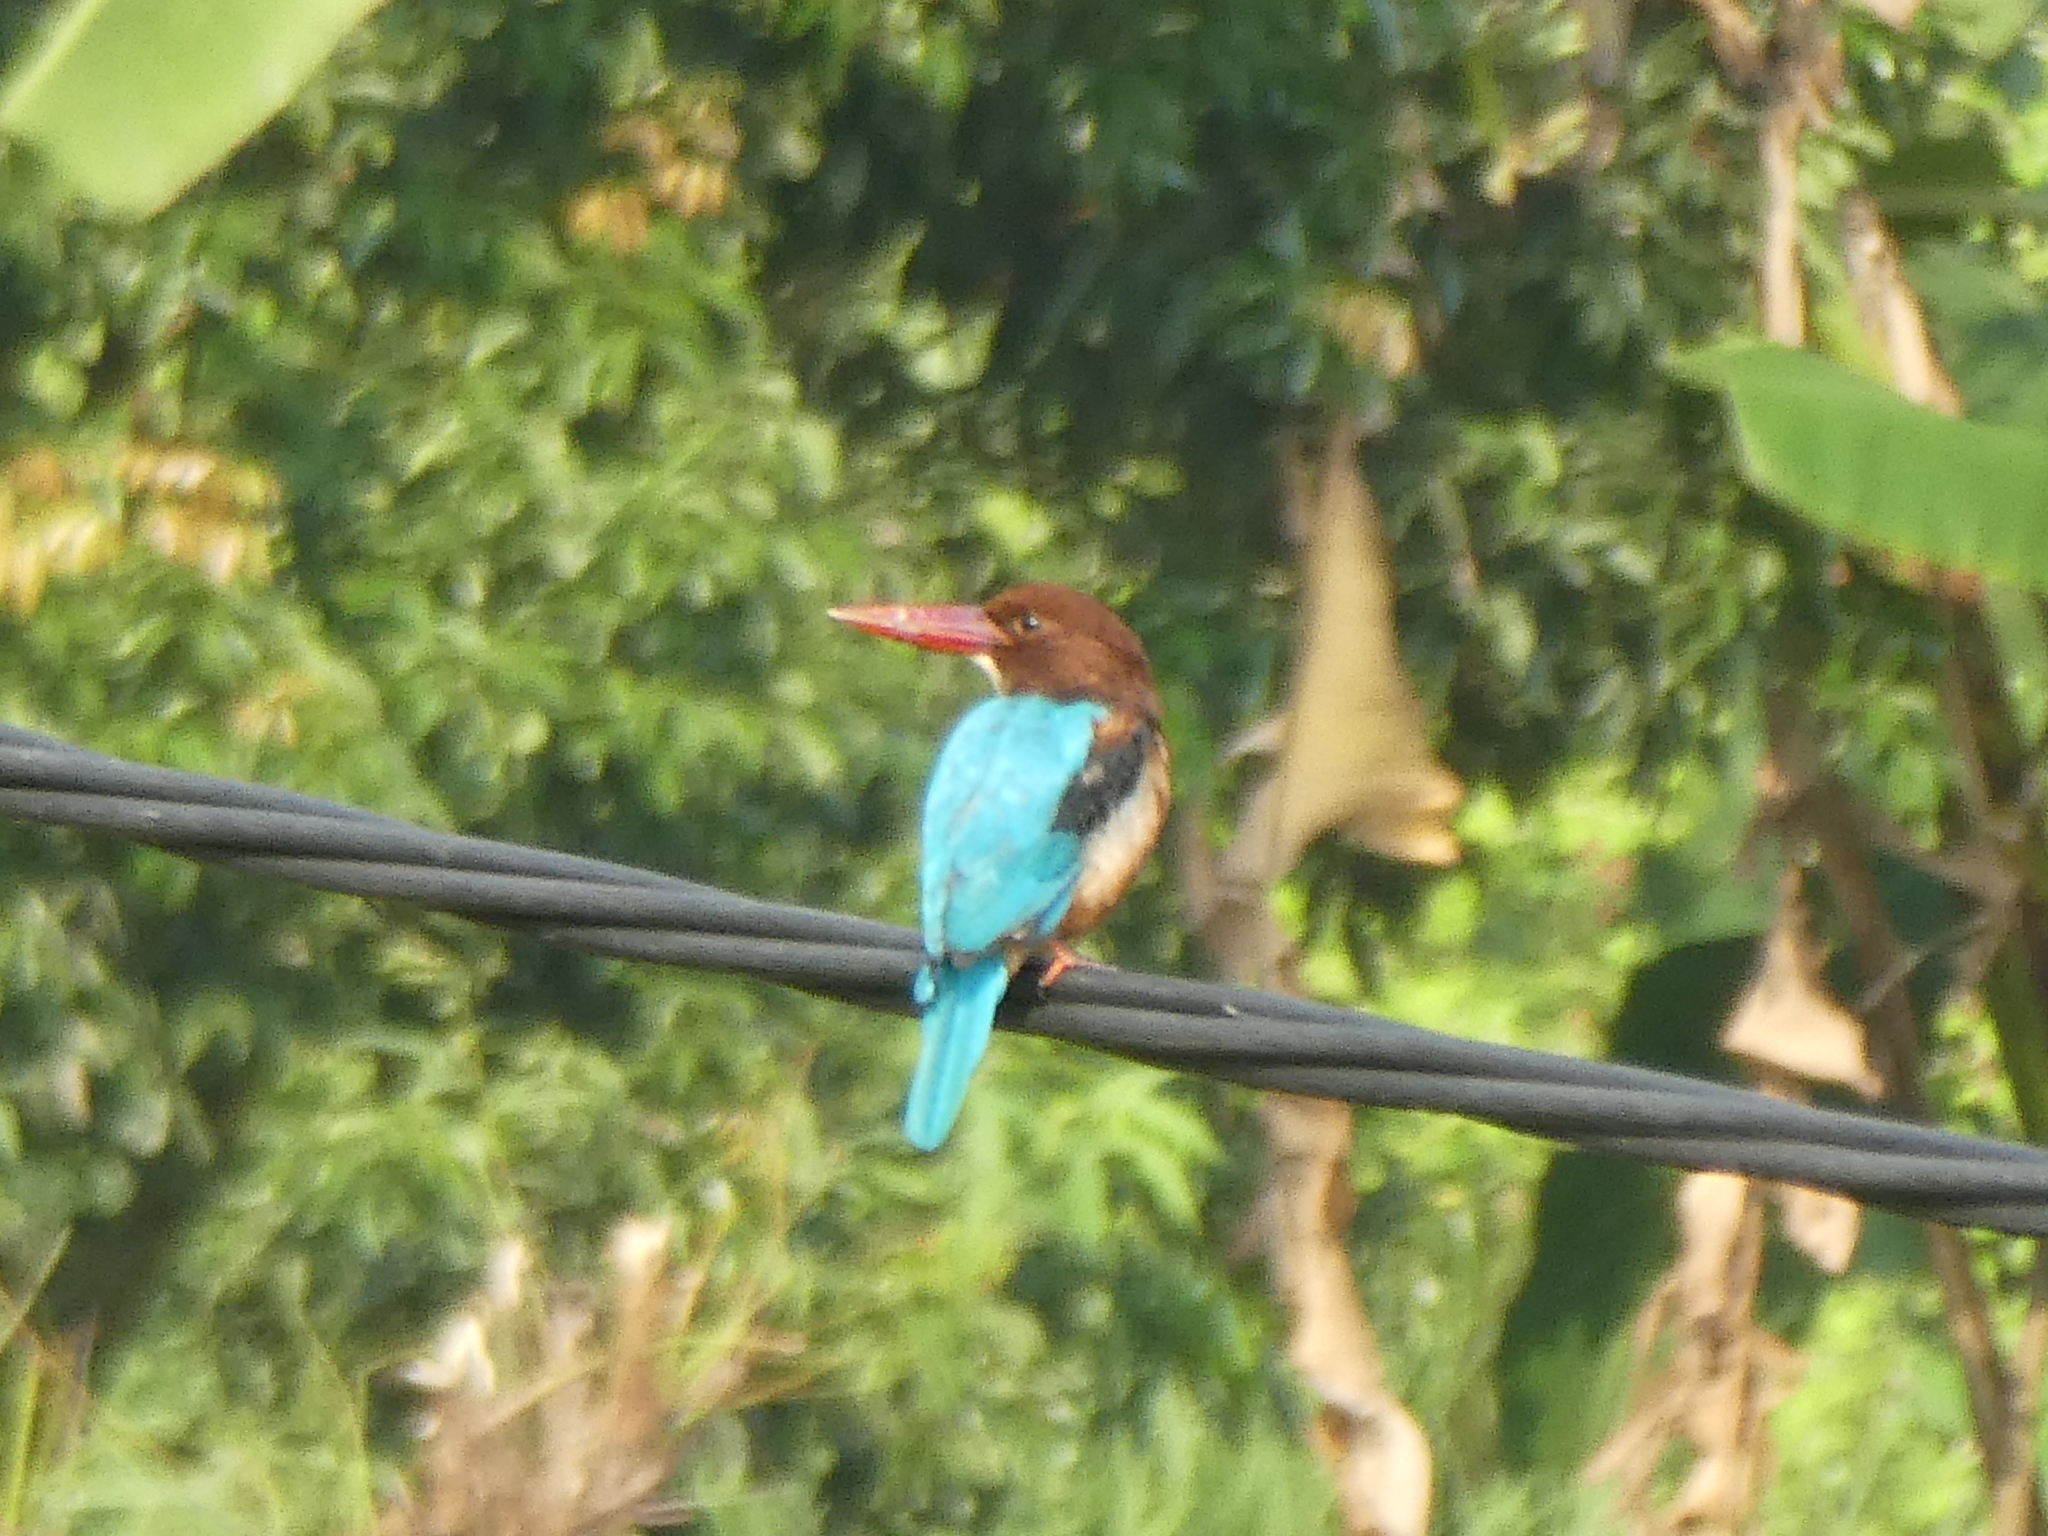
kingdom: Animalia
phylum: Chordata
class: Aves
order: Coraciiformes
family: Alcedinidae
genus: Halcyon
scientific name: Halcyon smyrnensis
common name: White-throated kingfisher
